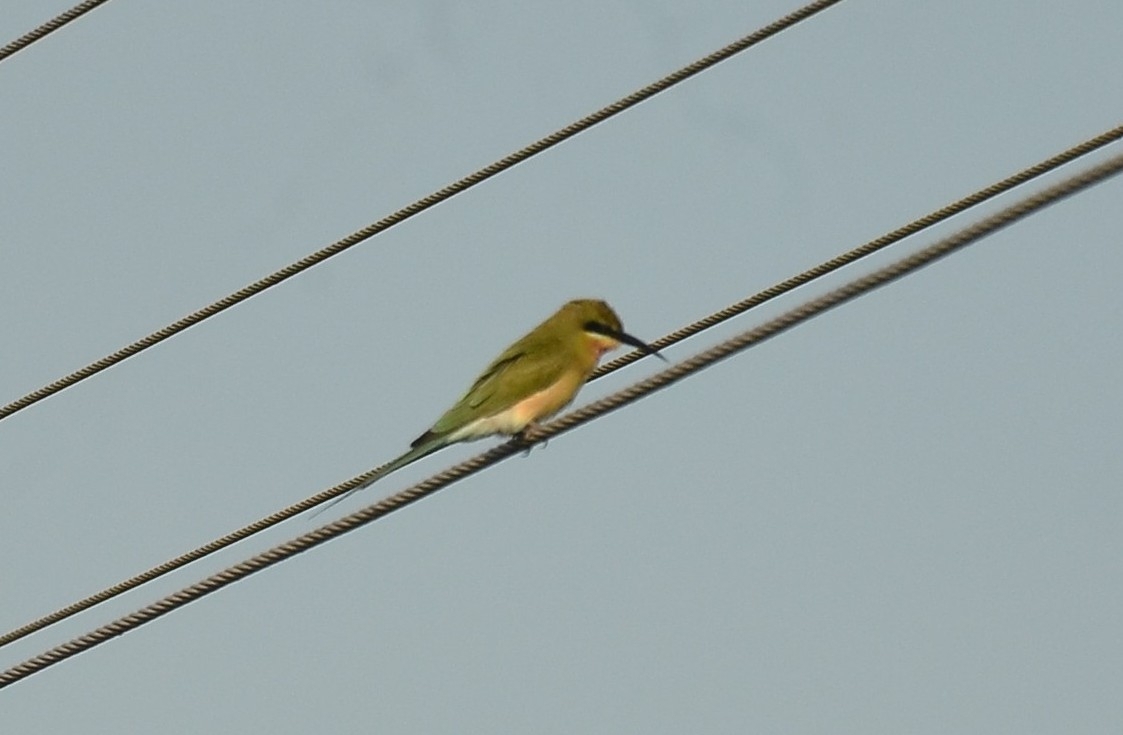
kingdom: Animalia
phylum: Chordata
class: Aves
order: Coraciiformes
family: Meropidae
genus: Merops
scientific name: Merops philippinus
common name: Blue-tailed bee-eater
